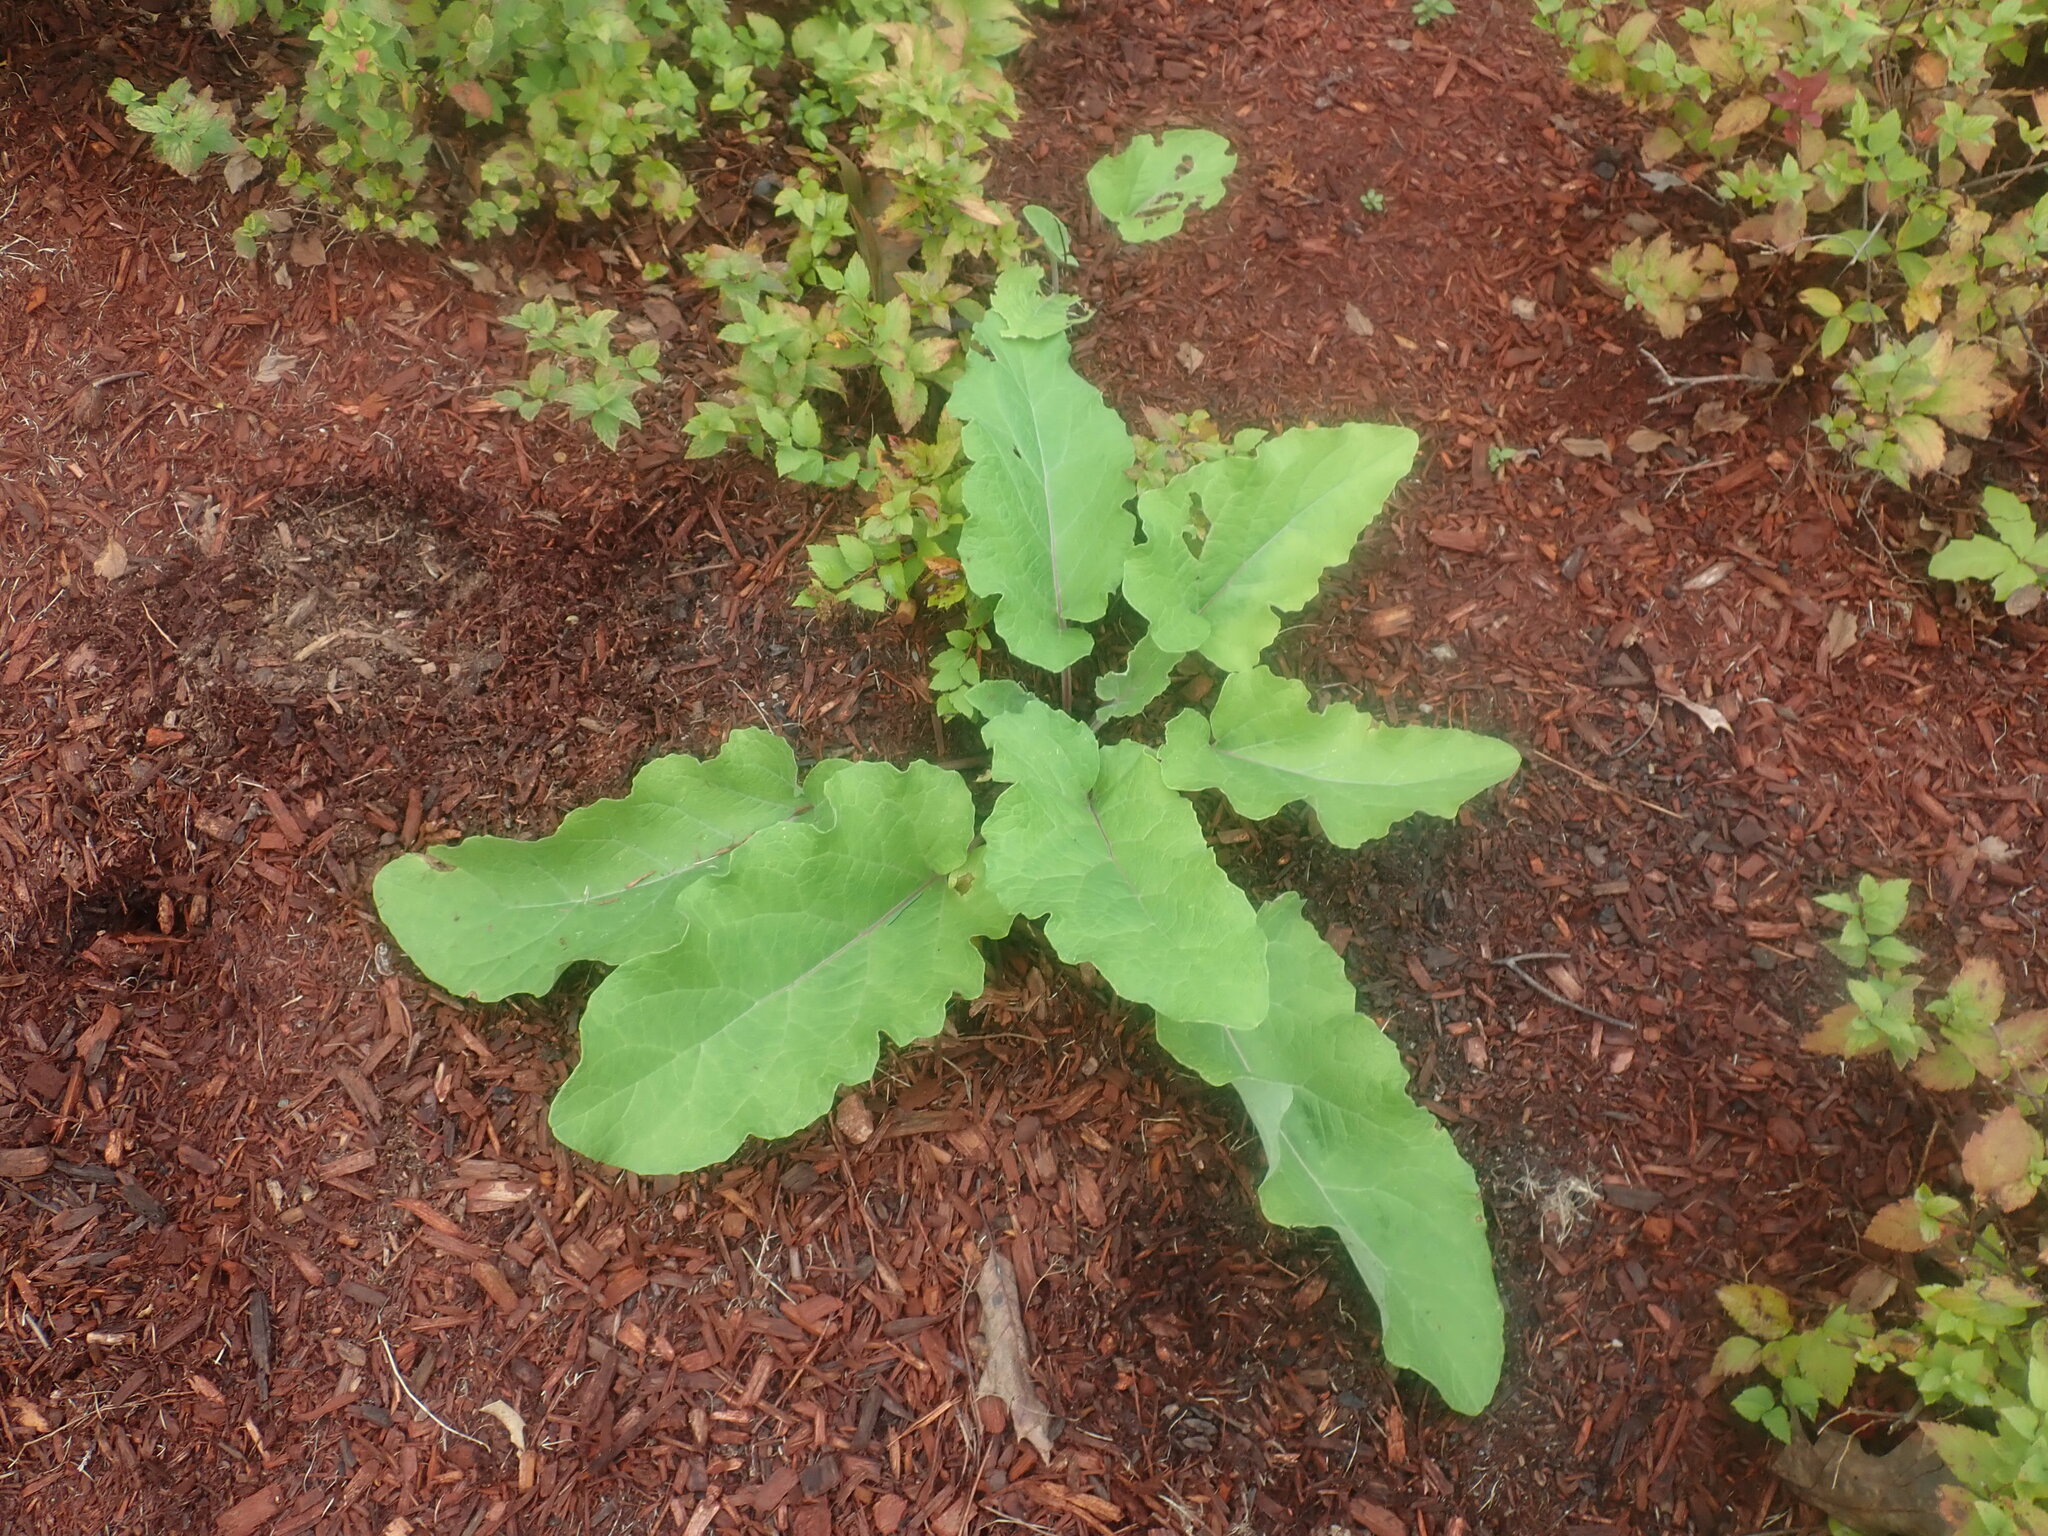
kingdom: Plantae
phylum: Tracheophyta
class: Magnoliopsida
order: Asterales
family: Asteraceae
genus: Arctium
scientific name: Arctium
